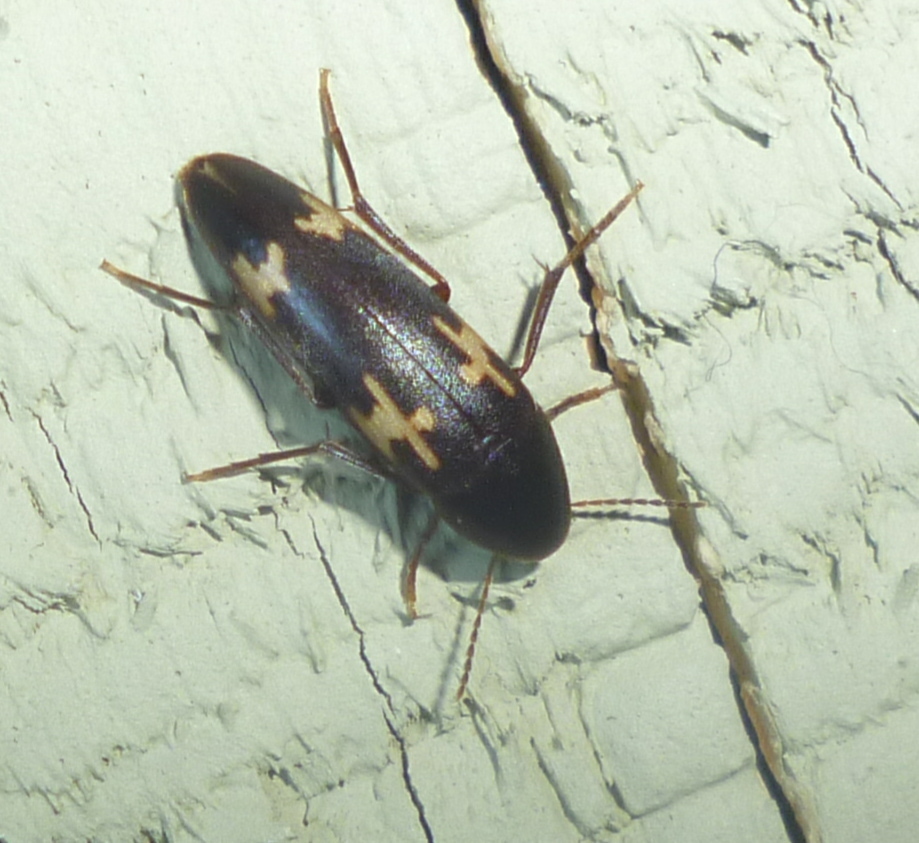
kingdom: Animalia
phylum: Arthropoda
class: Insecta
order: Coleoptera
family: Melandryidae
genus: Dircaea
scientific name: Dircaea liturata
